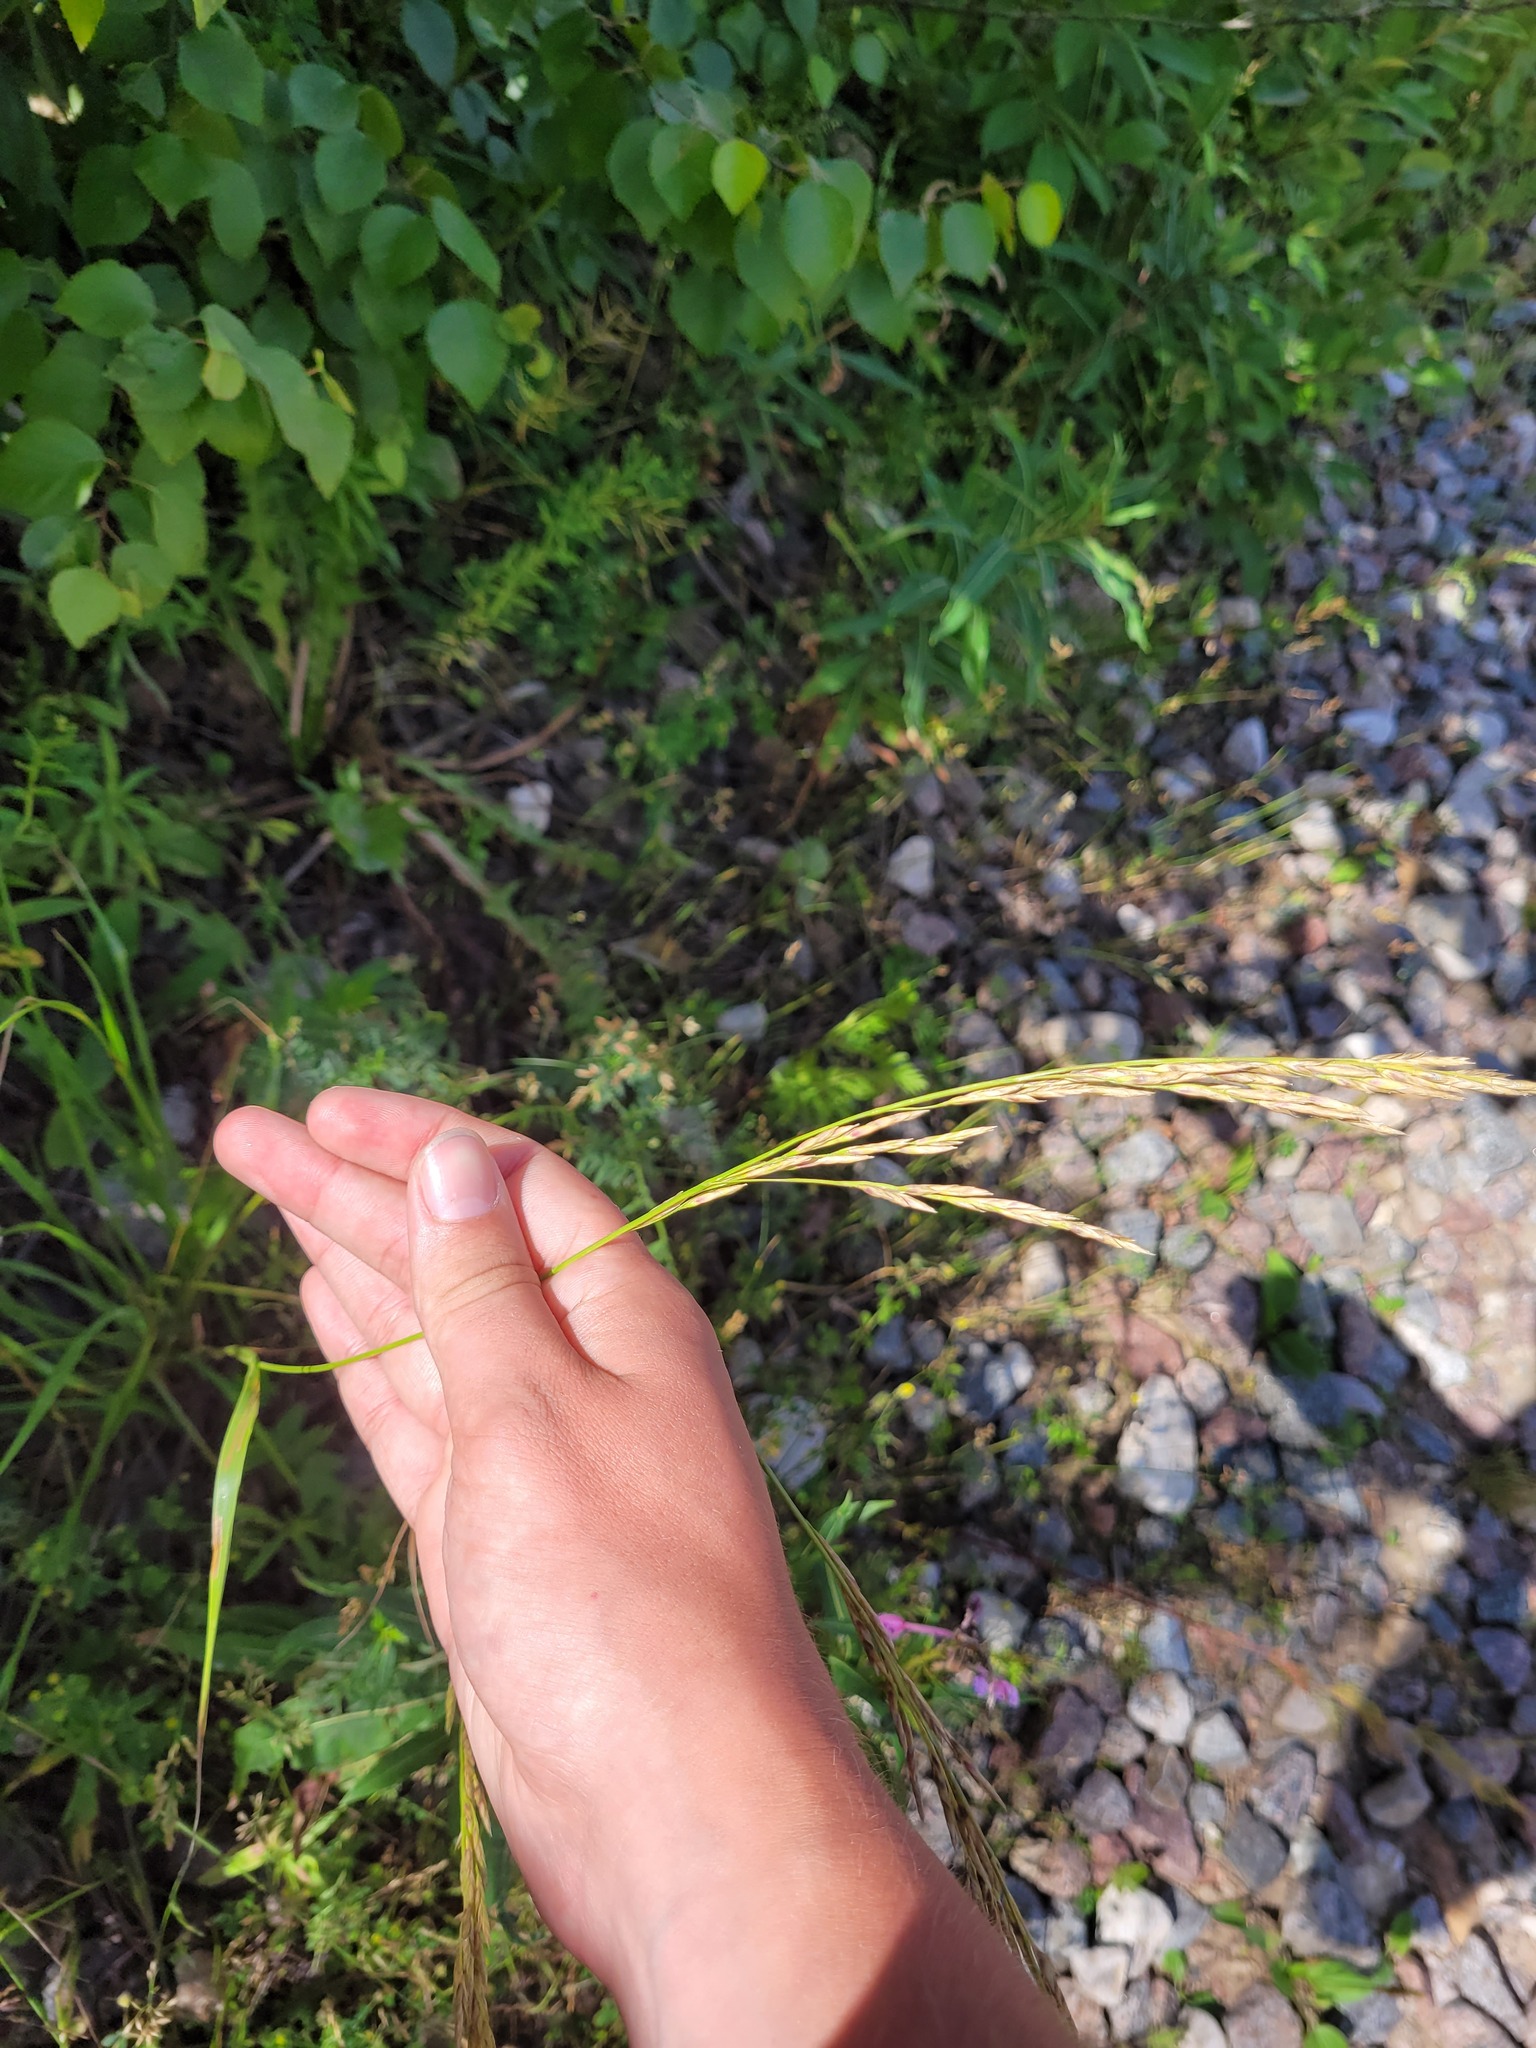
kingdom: Plantae
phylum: Tracheophyta
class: Liliopsida
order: Poales
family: Poaceae
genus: Lolium
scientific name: Lolium arundinaceum
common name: Reed fescue
